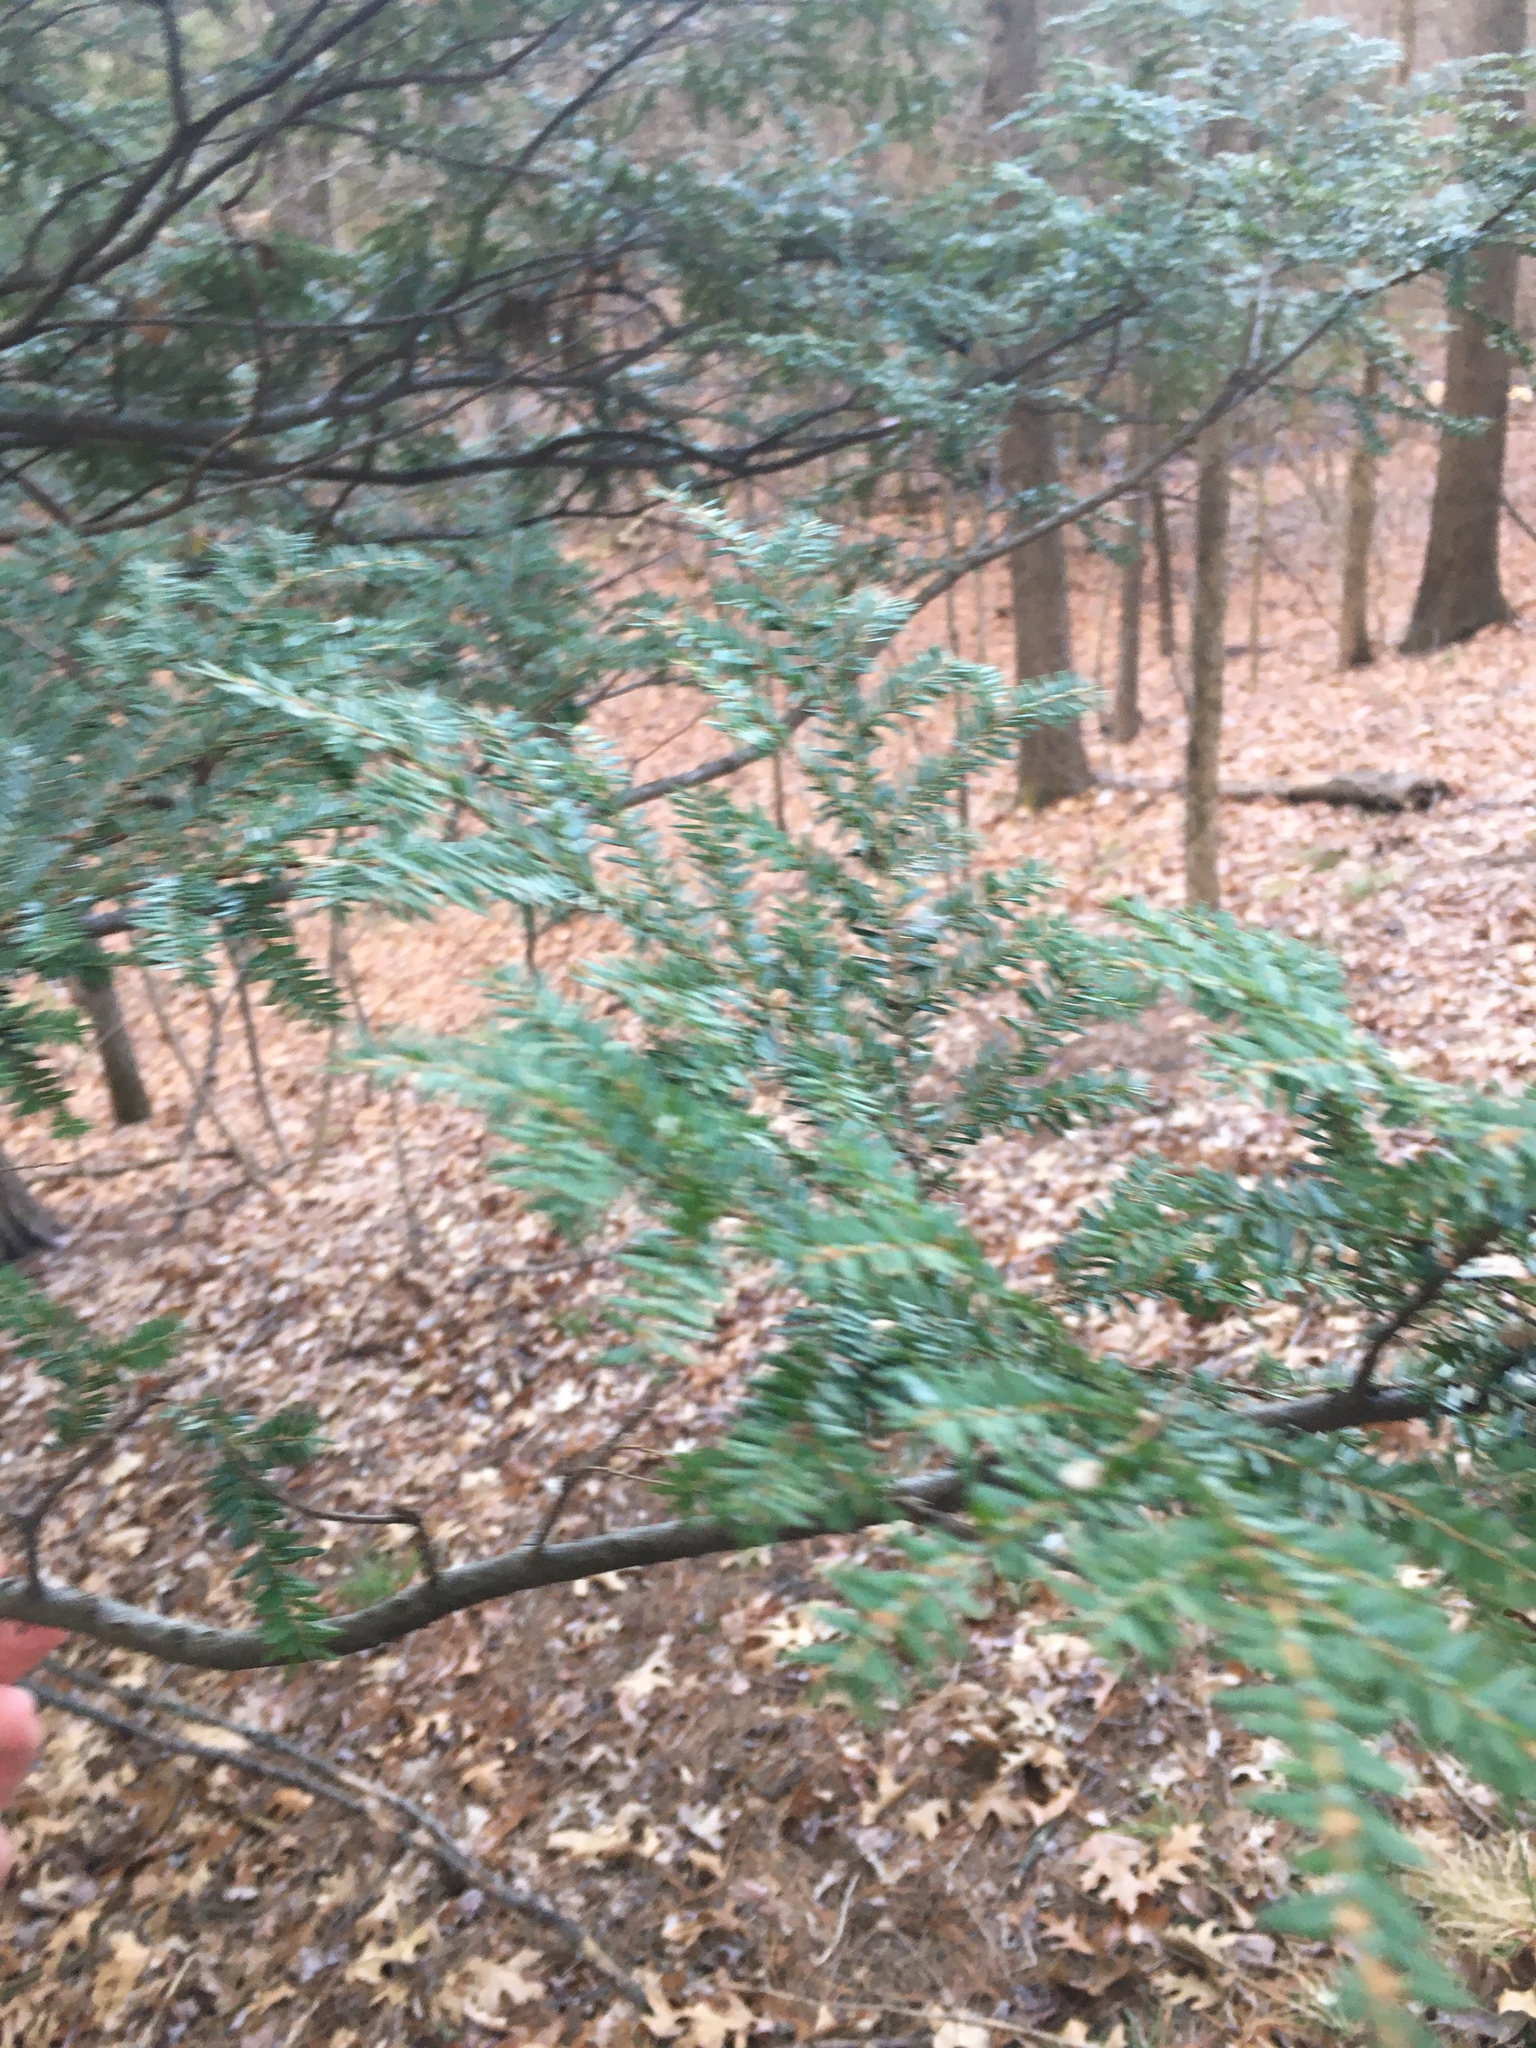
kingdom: Plantae
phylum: Tracheophyta
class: Pinopsida
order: Pinales
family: Pinaceae
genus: Tsuga
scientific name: Tsuga canadensis
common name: Eastern hemlock
